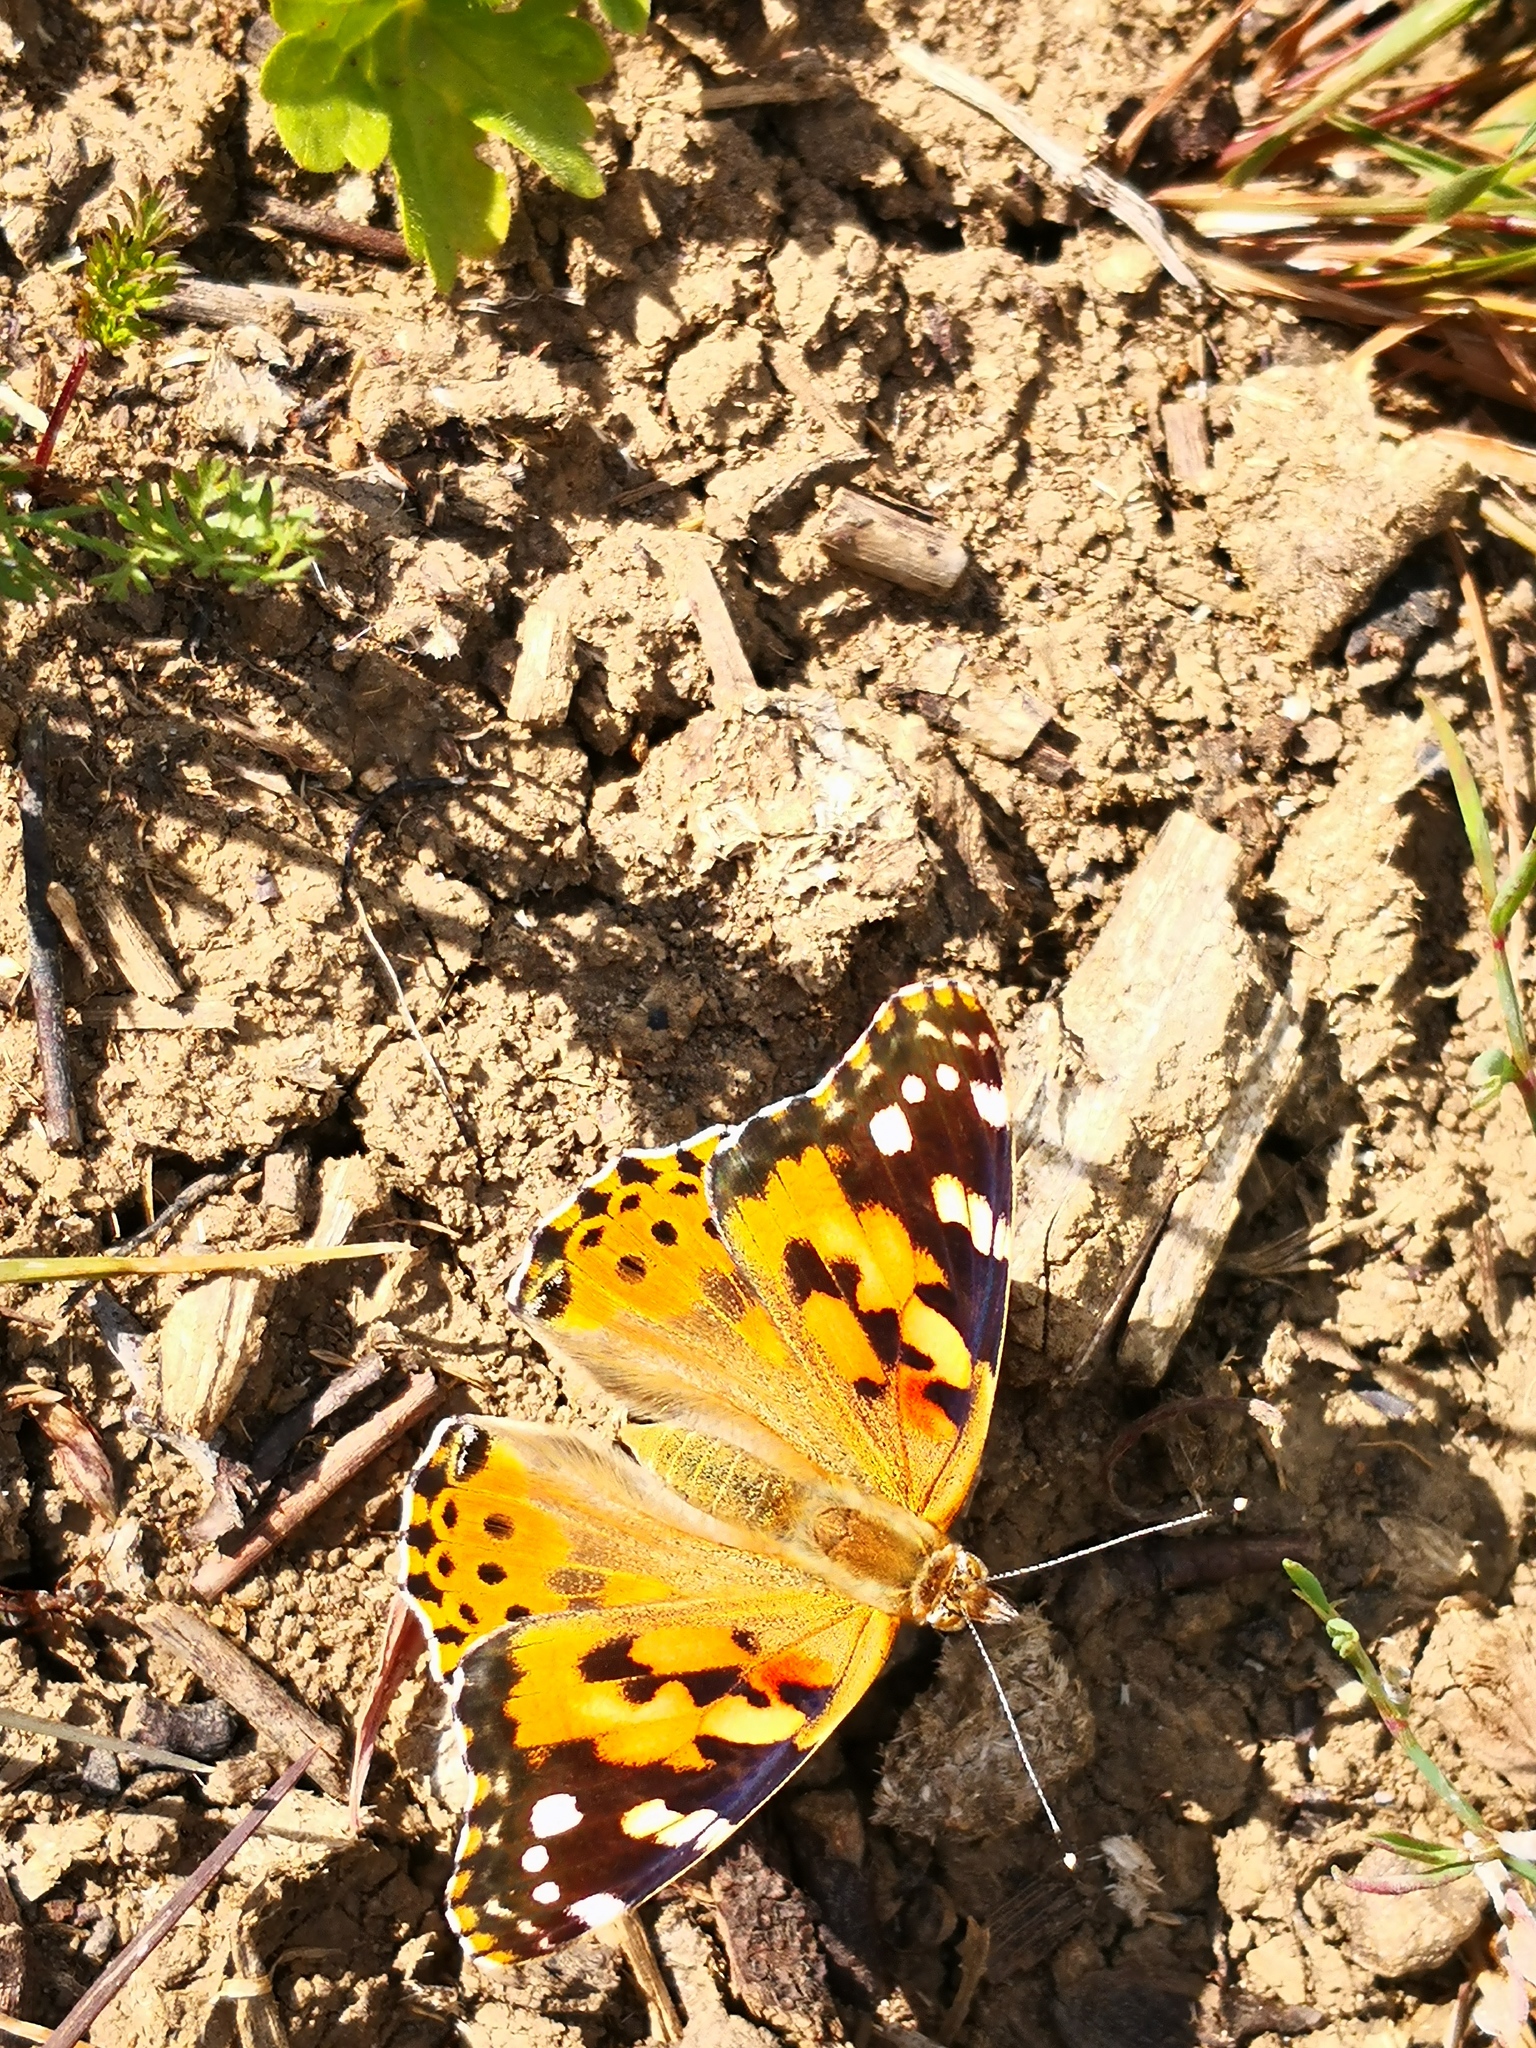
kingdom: Animalia
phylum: Arthropoda
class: Insecta
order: Lepidoptera
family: Nymphalidae
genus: Vanessa
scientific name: Vanessa cardui
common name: Painted lady
